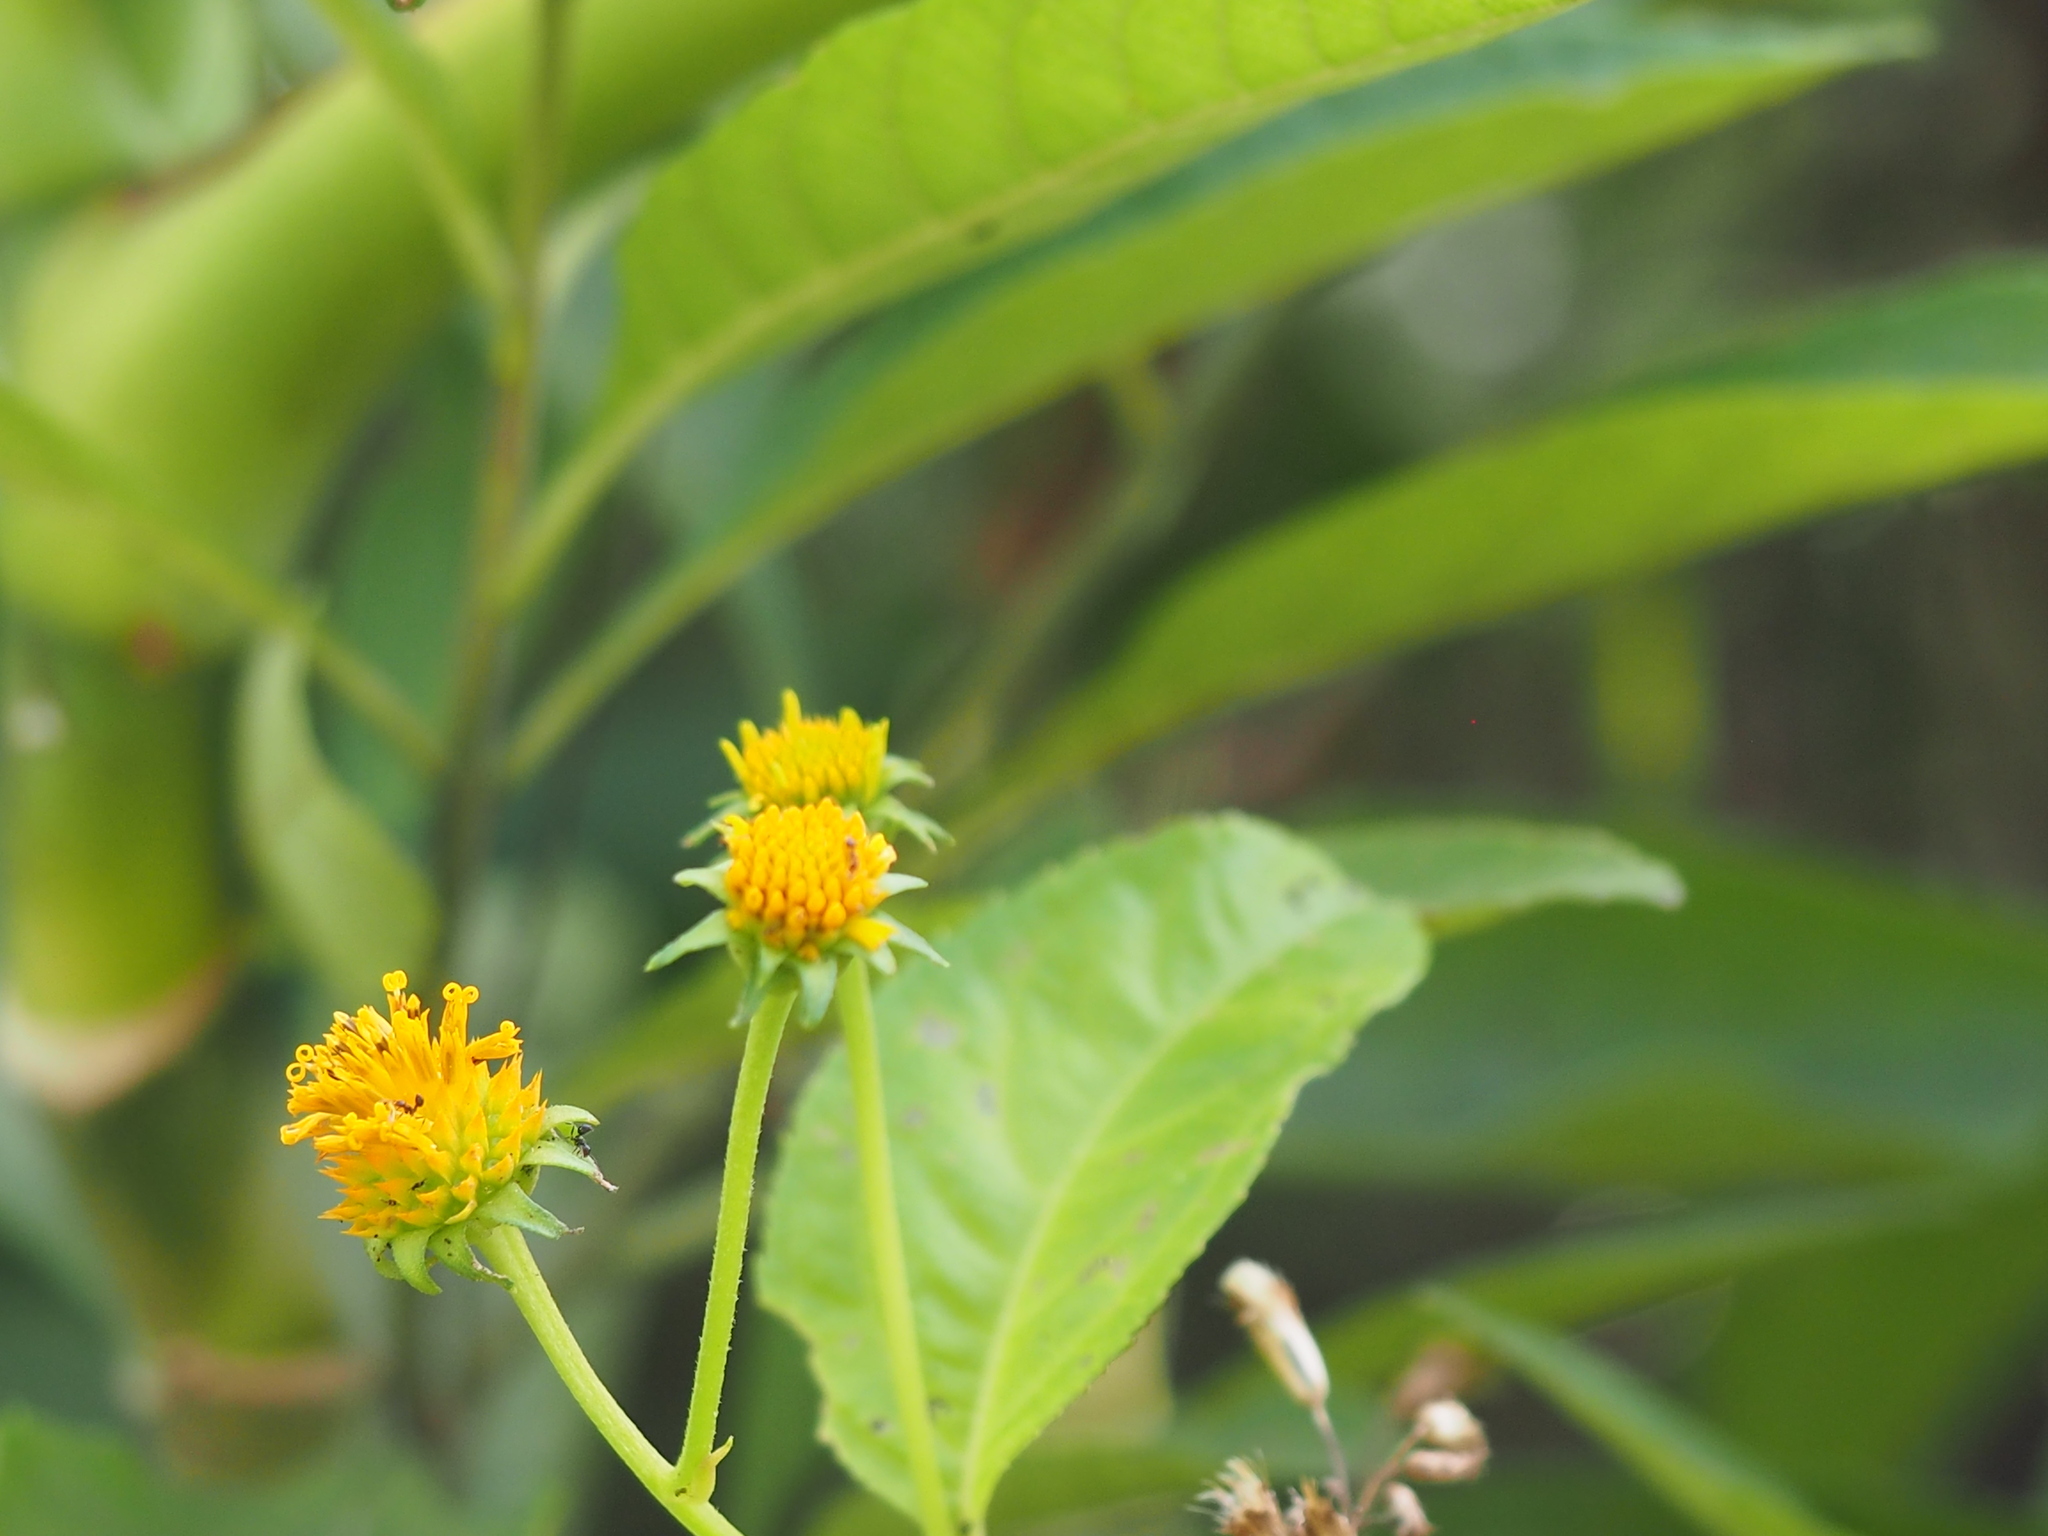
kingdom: Plantae
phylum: Tracheophyta
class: Magnoliopsida
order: Asterales
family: Asteraceae
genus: Tilesia
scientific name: Tilesia baccata
